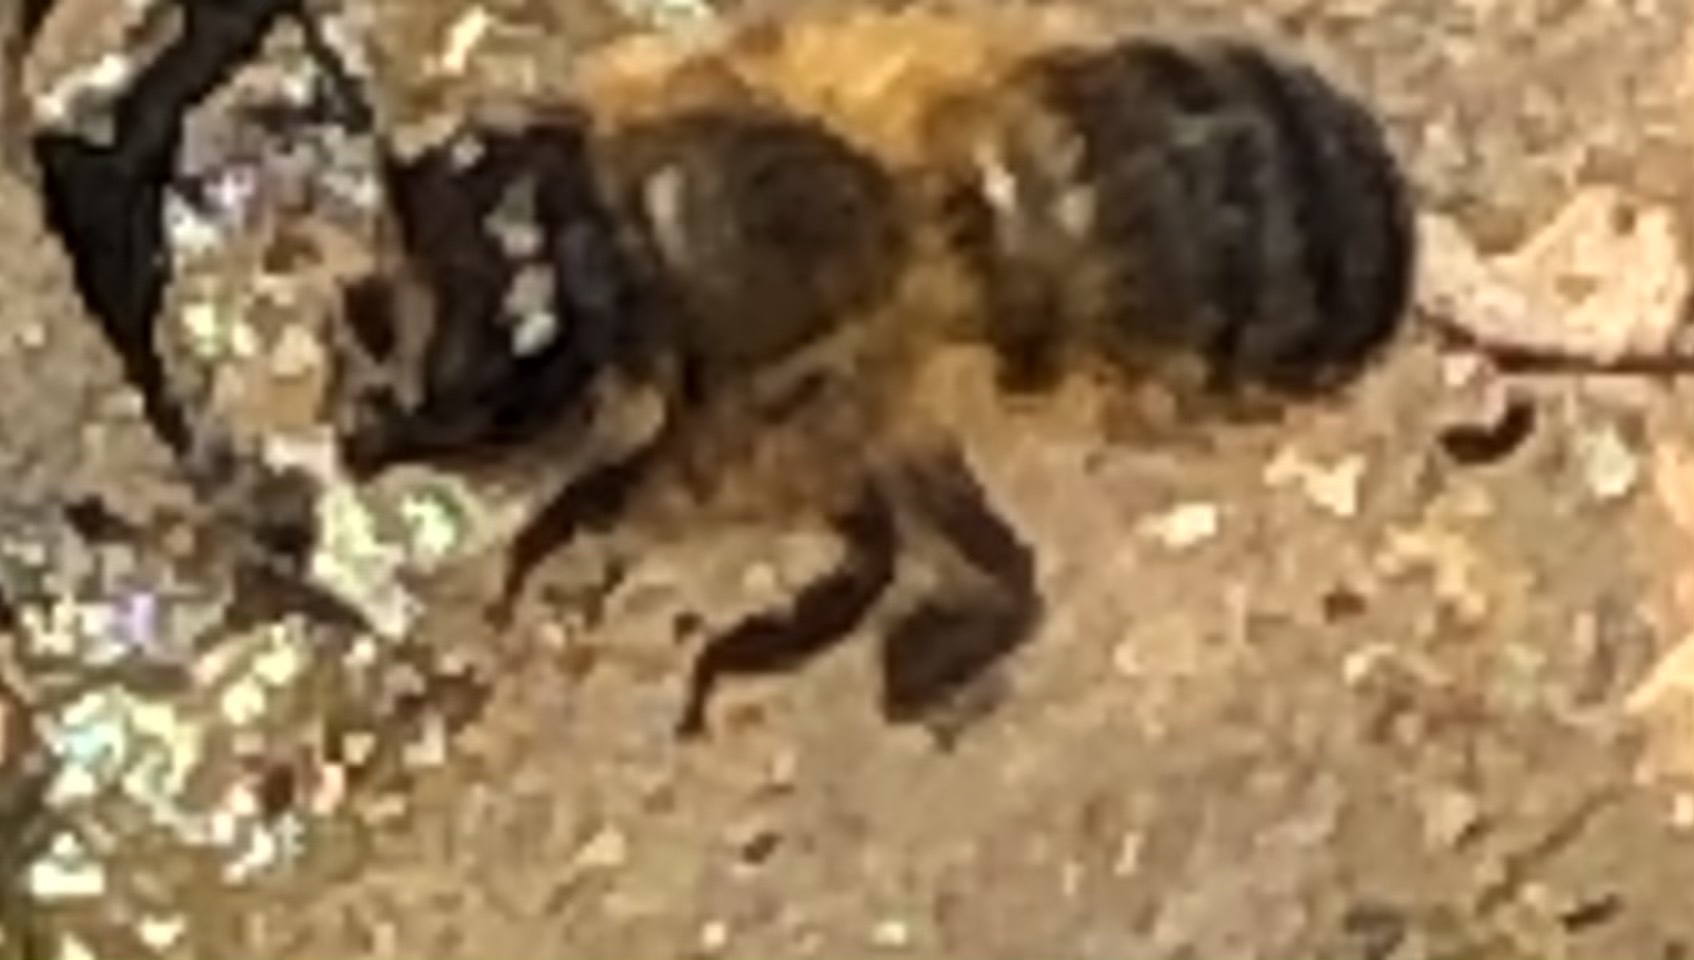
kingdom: Animalia
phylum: Arthropoda
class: Insecta
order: Hymenoptera
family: Megachilidae
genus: Osmia
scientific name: Osmia taurus
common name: Taurus mason bee
